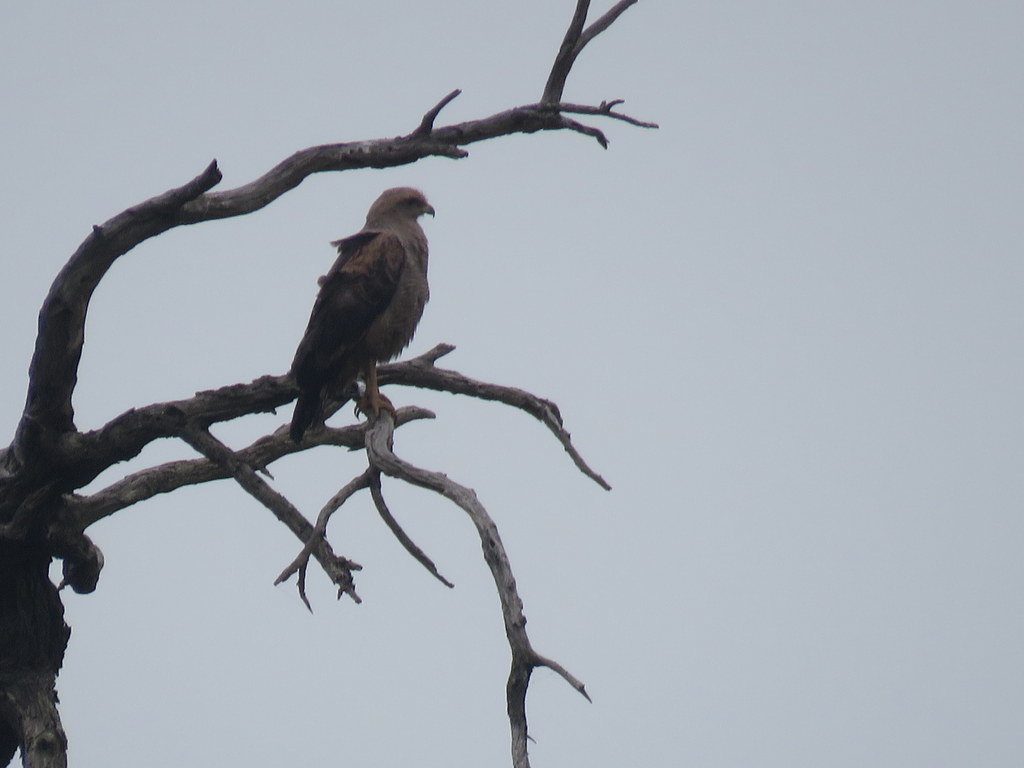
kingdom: Animalia
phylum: Chordata
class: Aves
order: Accipitriformes
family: Accipitridae
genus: Buteogallus
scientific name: Buteogallus meridionalis
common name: Savanna hawk
